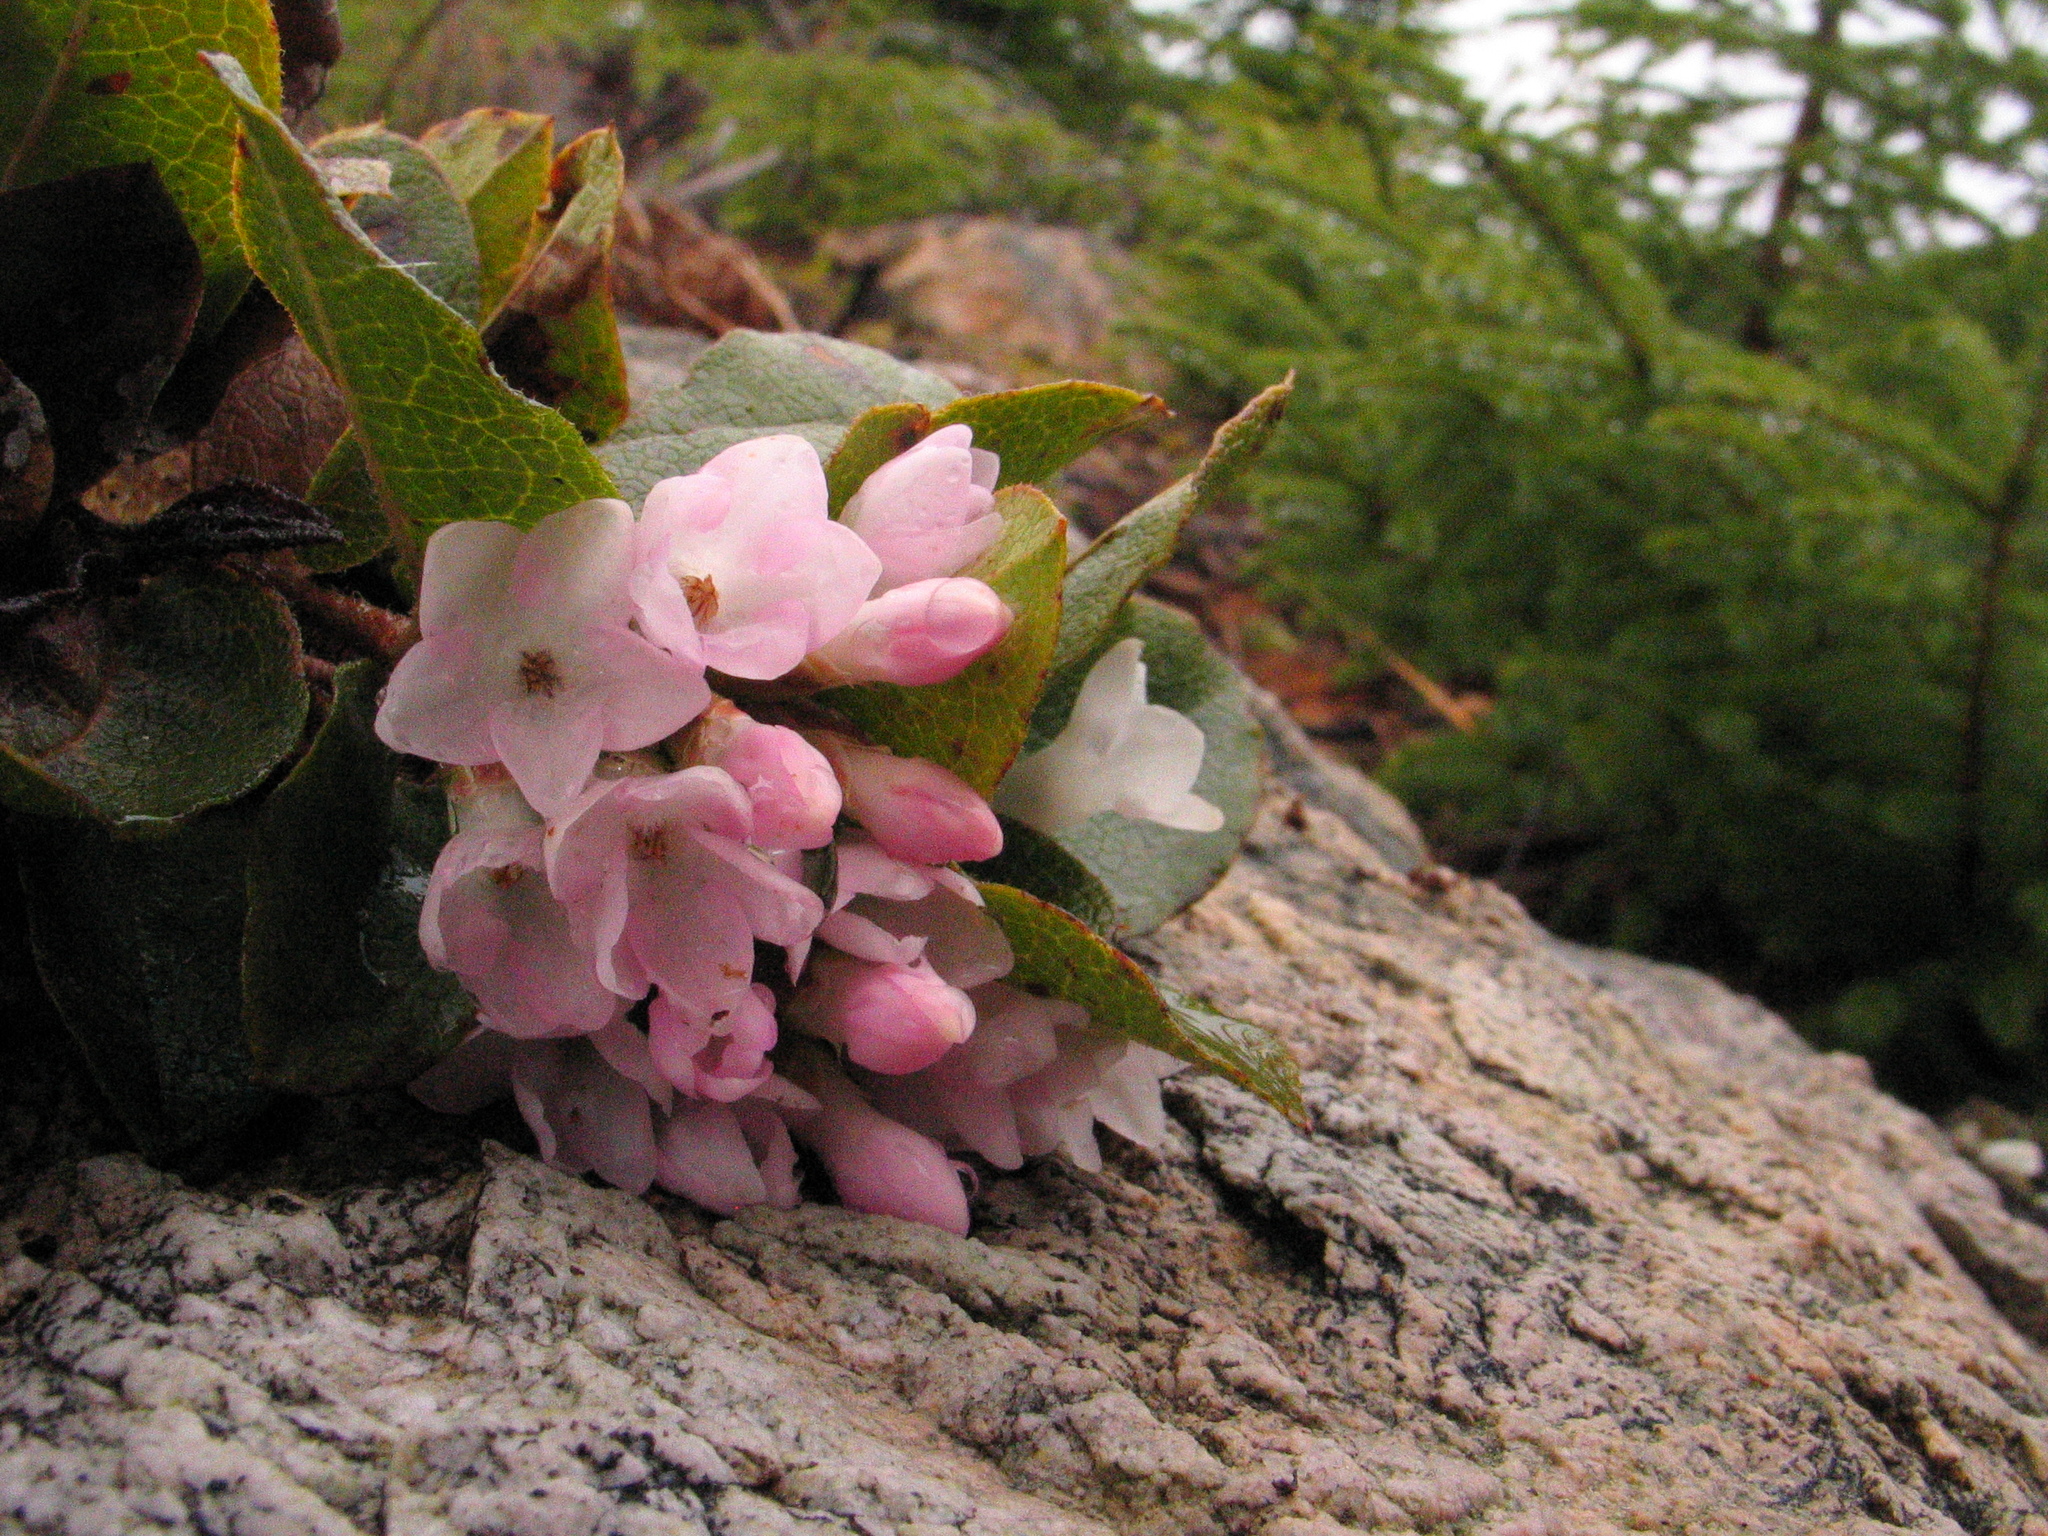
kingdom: Plantae
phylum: Tracheophyta
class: Magnoliopsida
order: Ericales
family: Ericaceae
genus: Epigaea
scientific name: Epigaea repens
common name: Gravelroot
